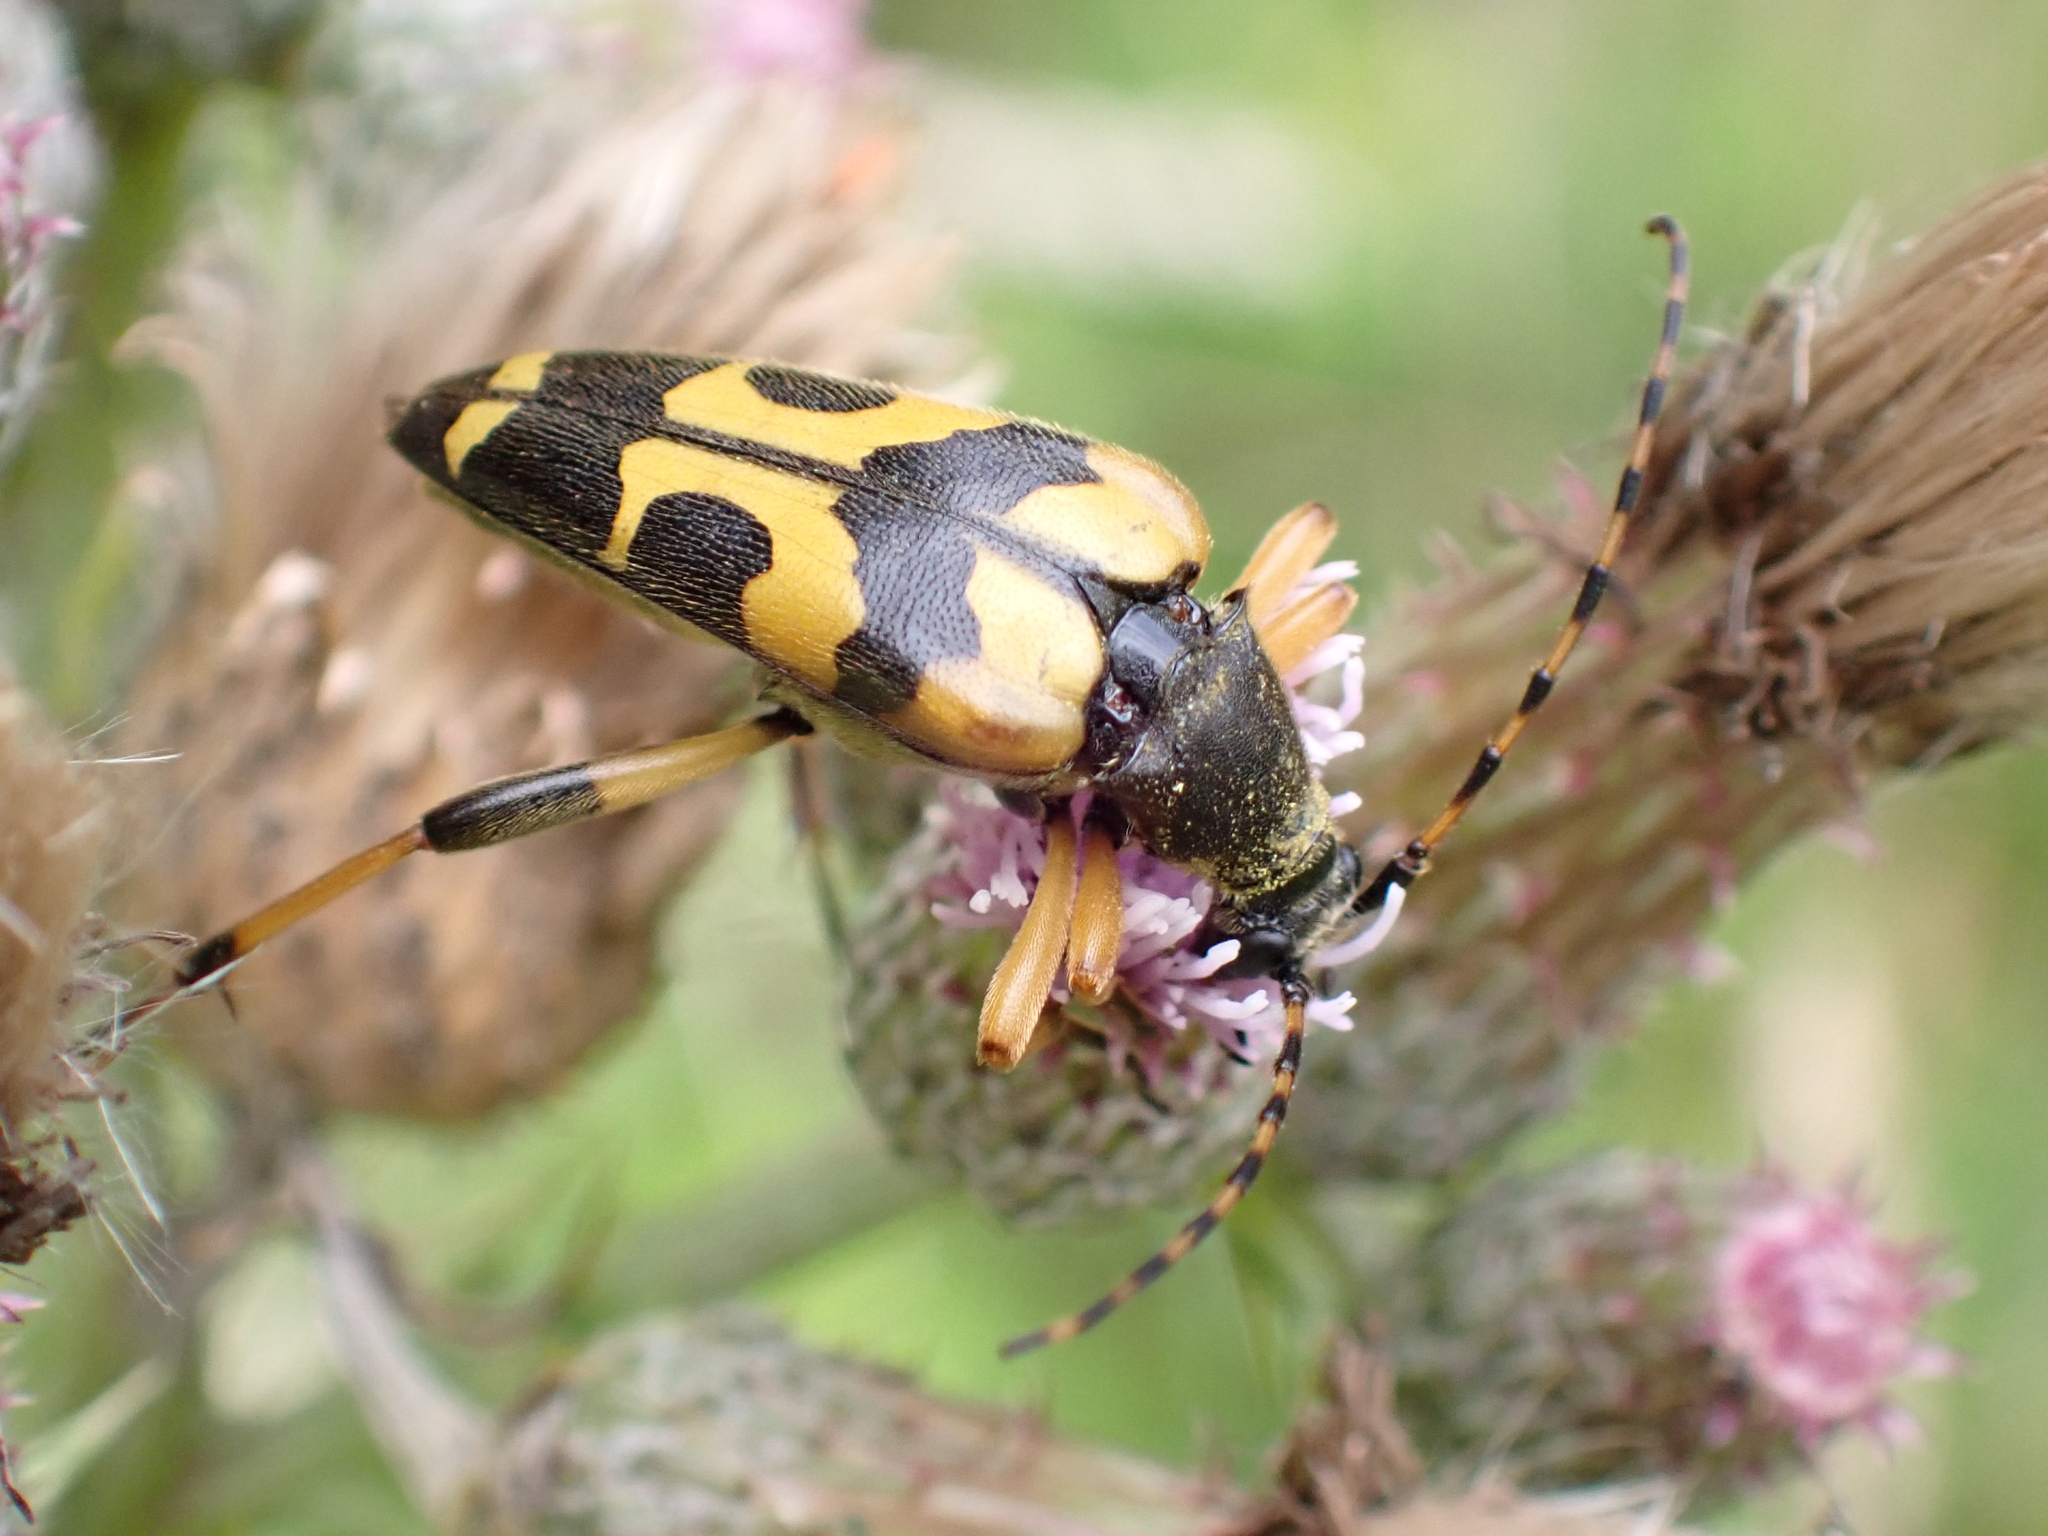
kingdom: Animalia
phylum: Arthropoda
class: Insecta
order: Coleoptera
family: Cerambycidae
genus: Rutpela
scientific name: Rutpela maculata
